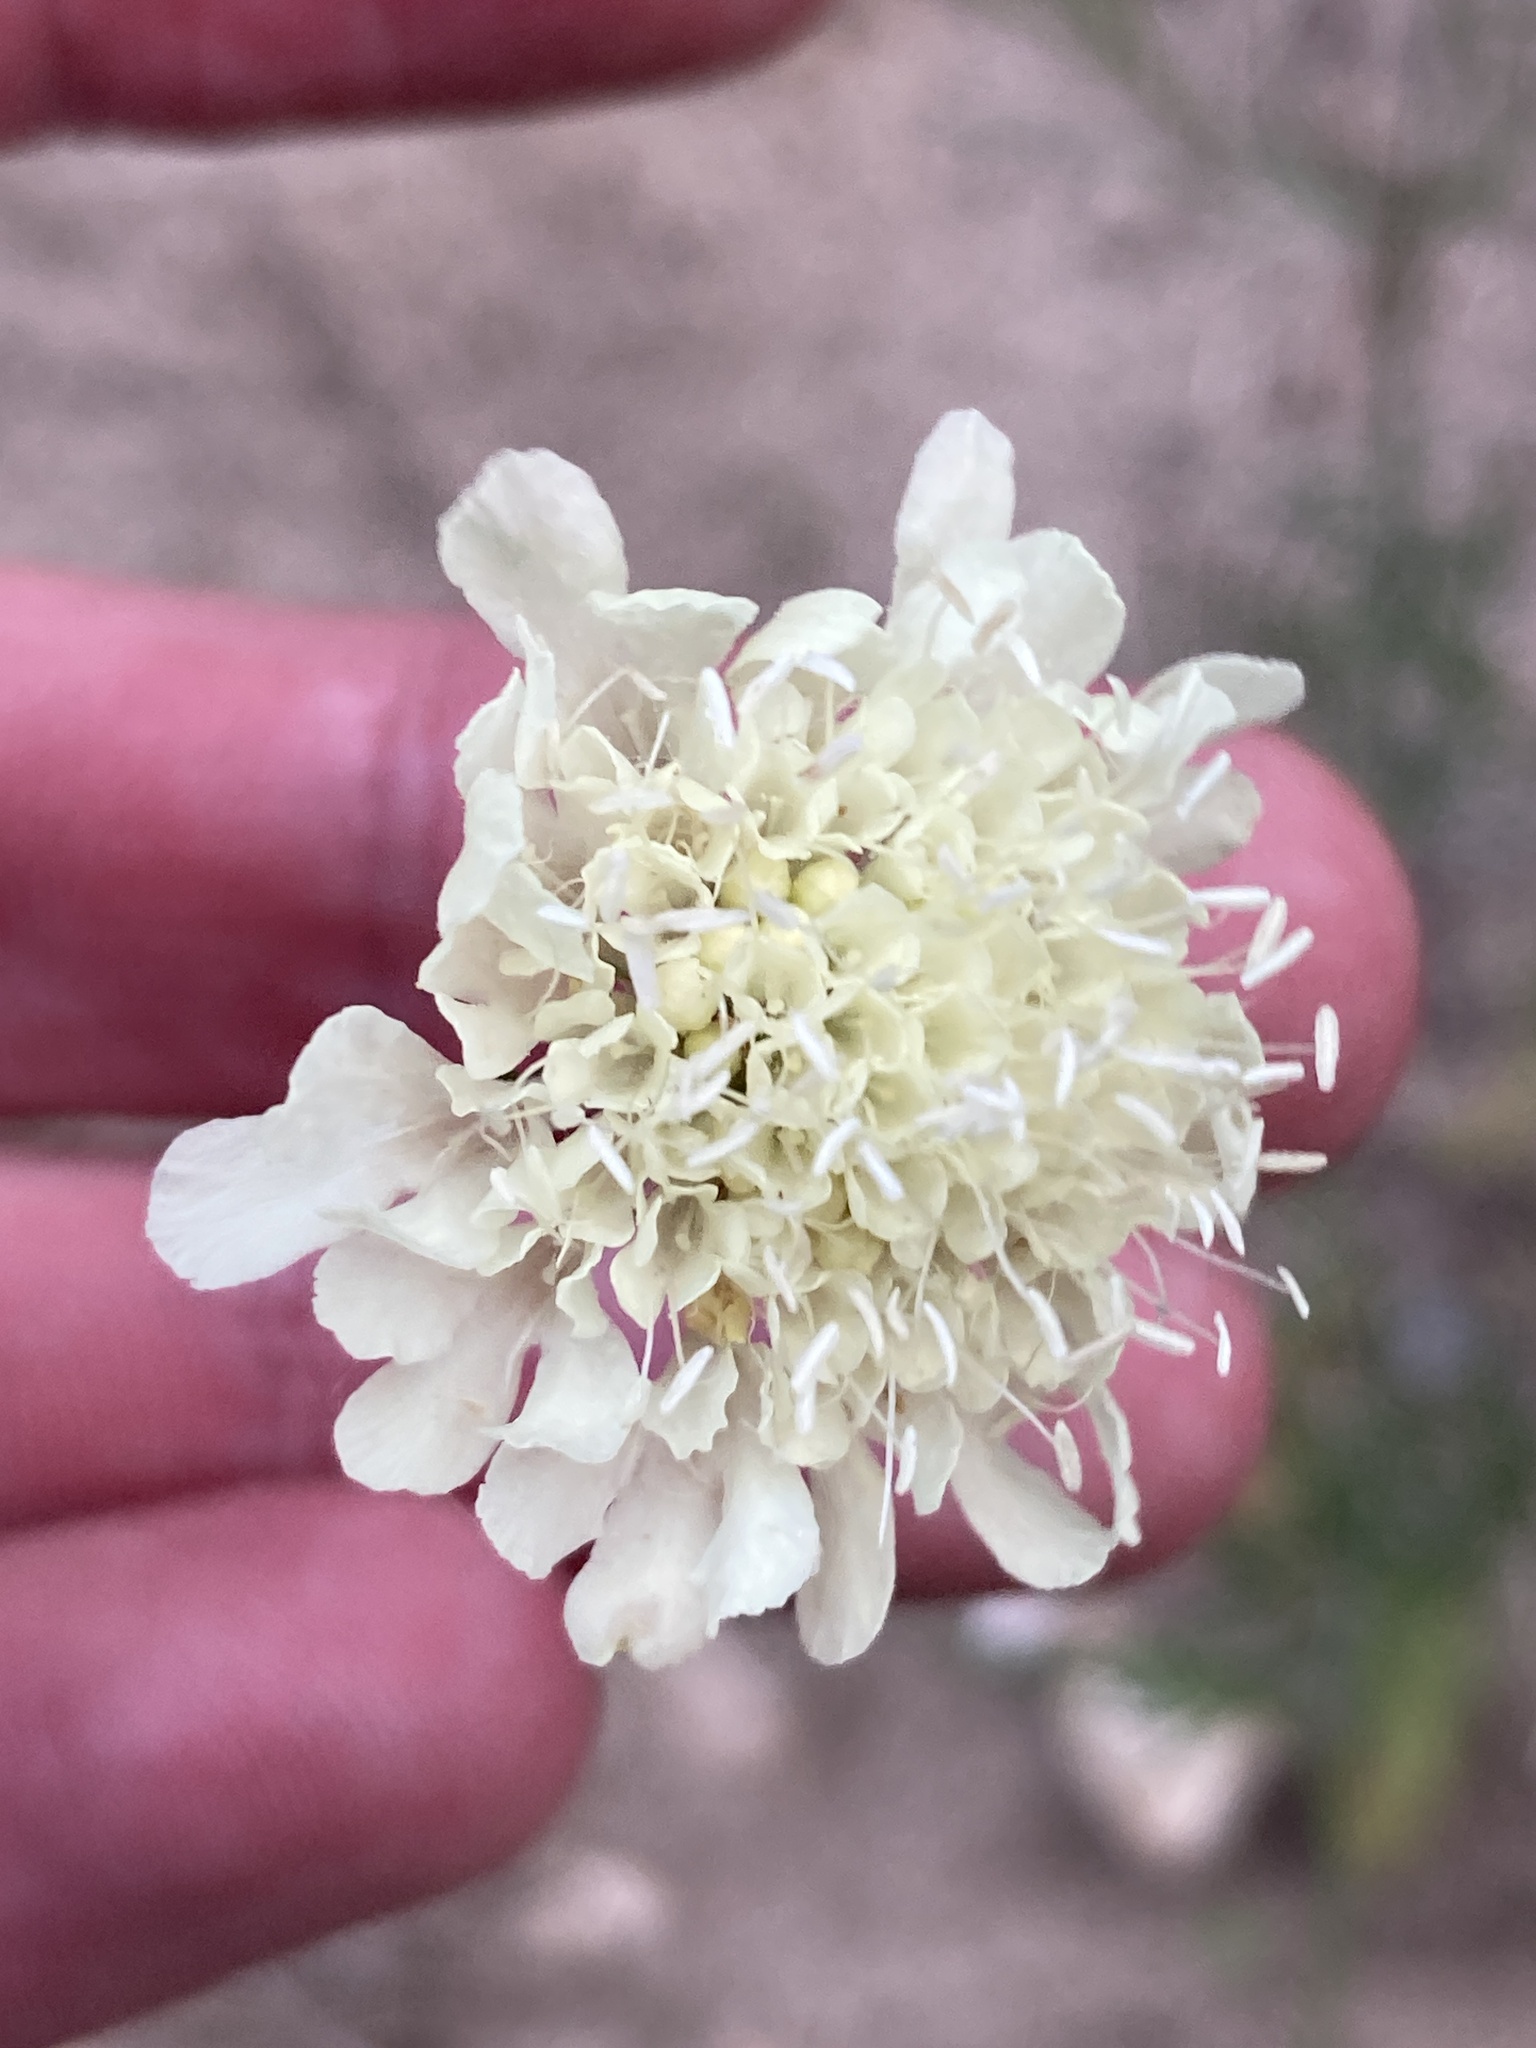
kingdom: Plantae
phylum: Tracheophyta
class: Magnoliopsida
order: Dipsacales
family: Caprifoliaceae
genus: Scabiosa
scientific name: Scabiosa ochroleuca
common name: Cream pincushions
